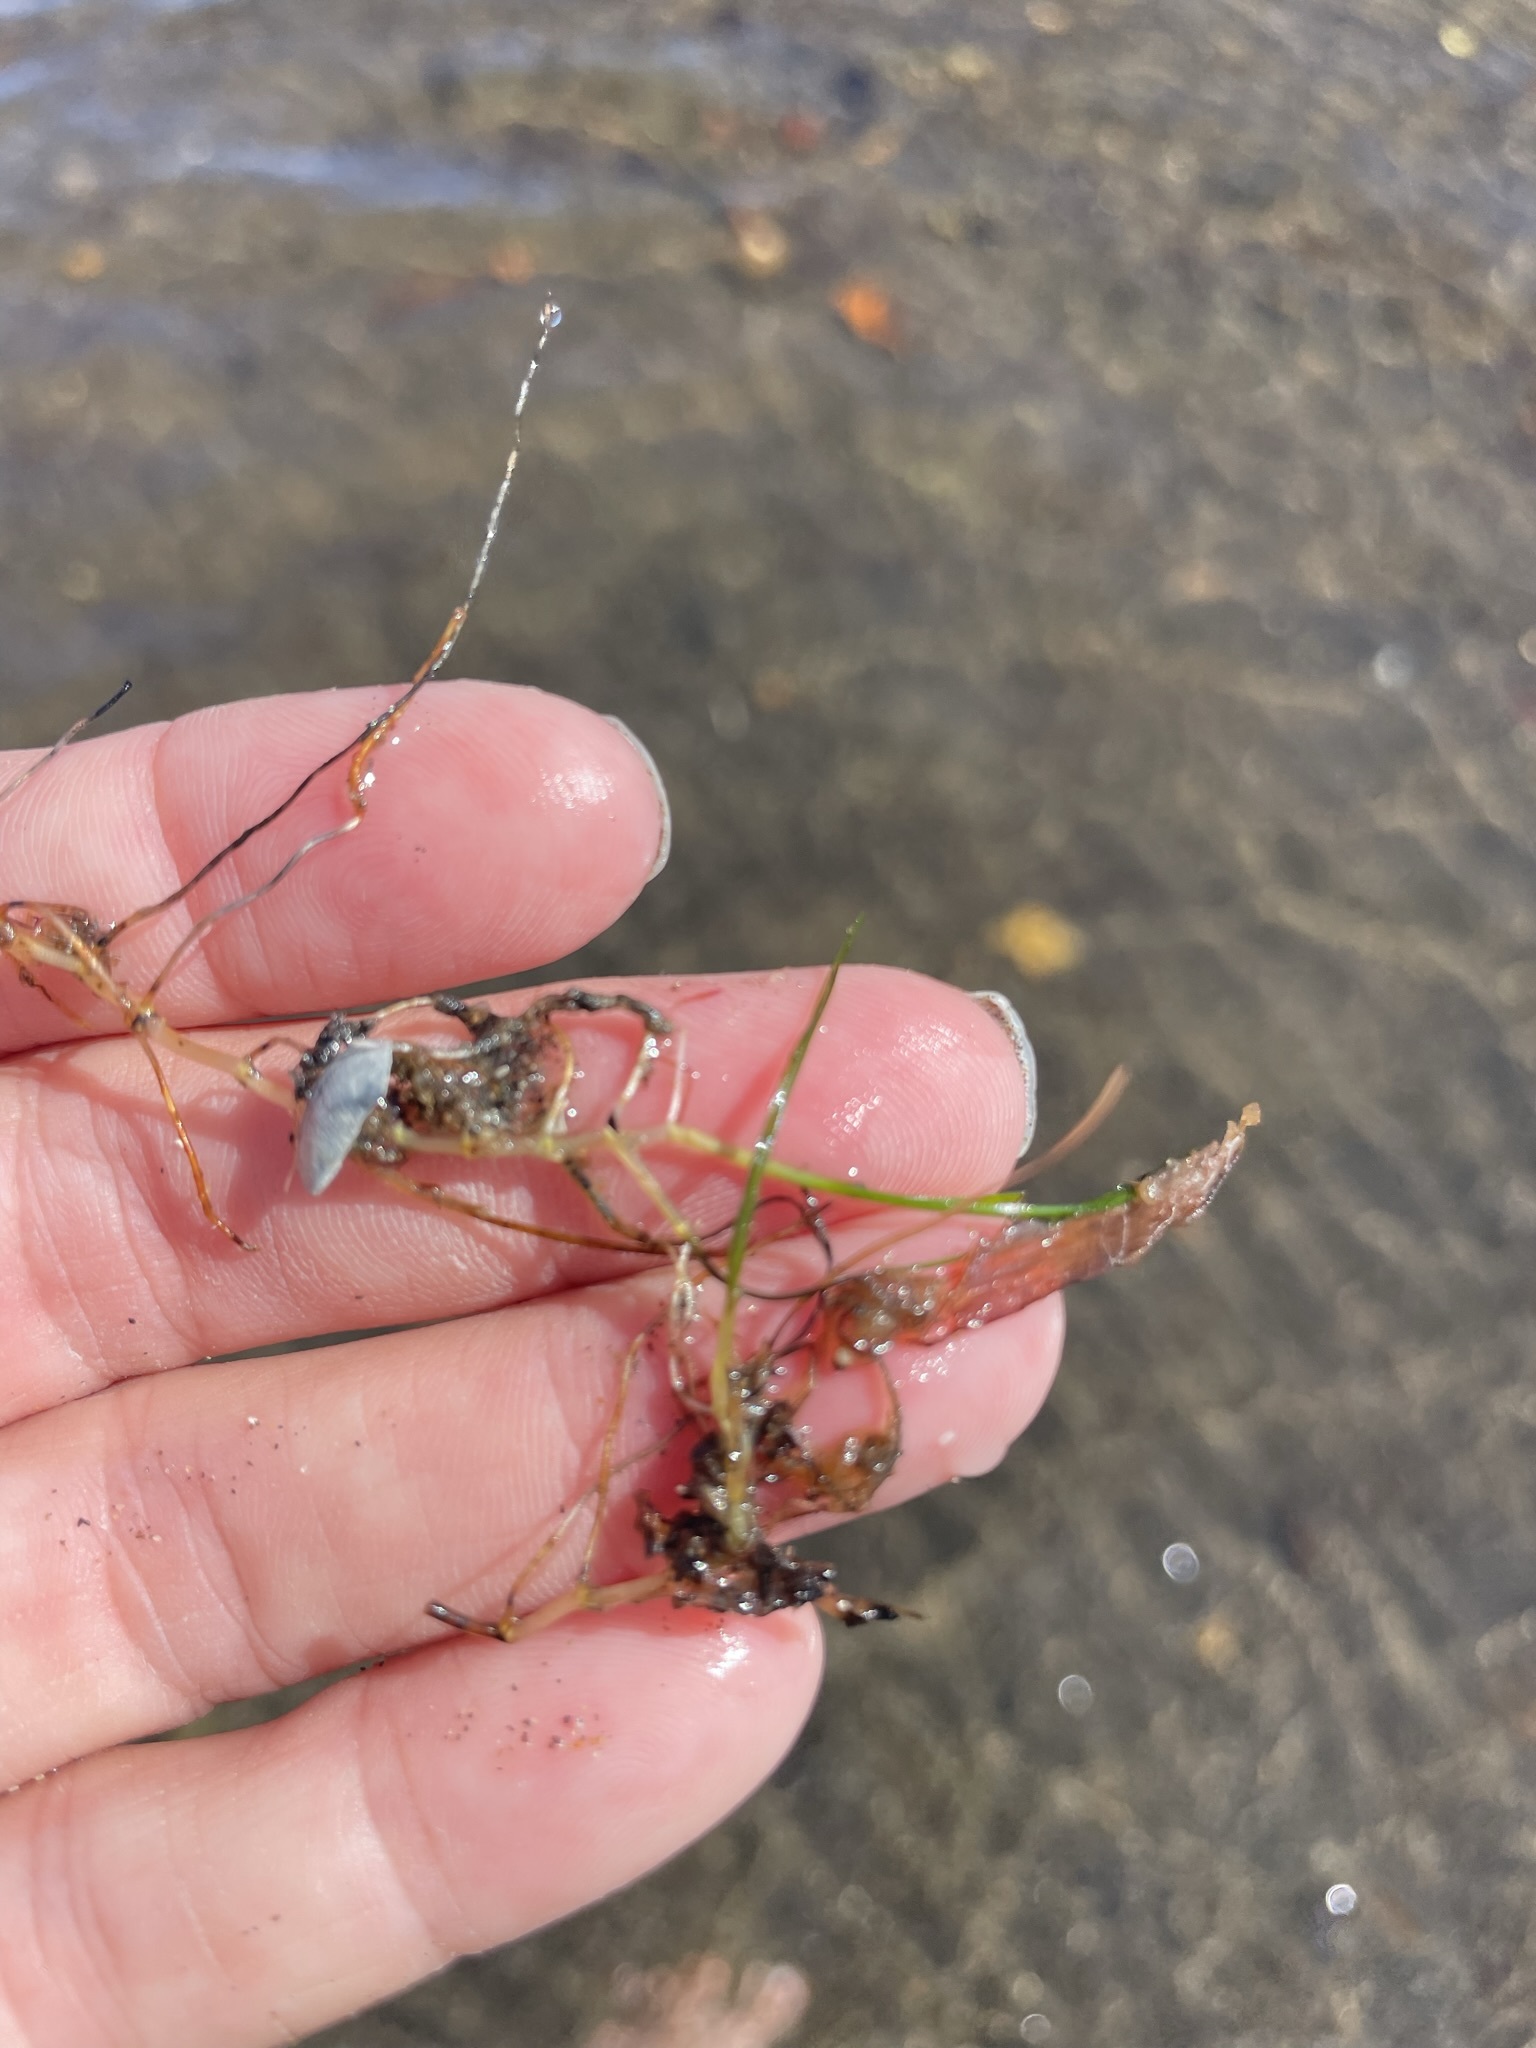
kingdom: Plantae
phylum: Tracheophyta
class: Liliopsida
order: Alismatales
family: Ruppiaceae
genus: Ruppia
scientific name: Ruppia maritima
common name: Beaked tasselweed
